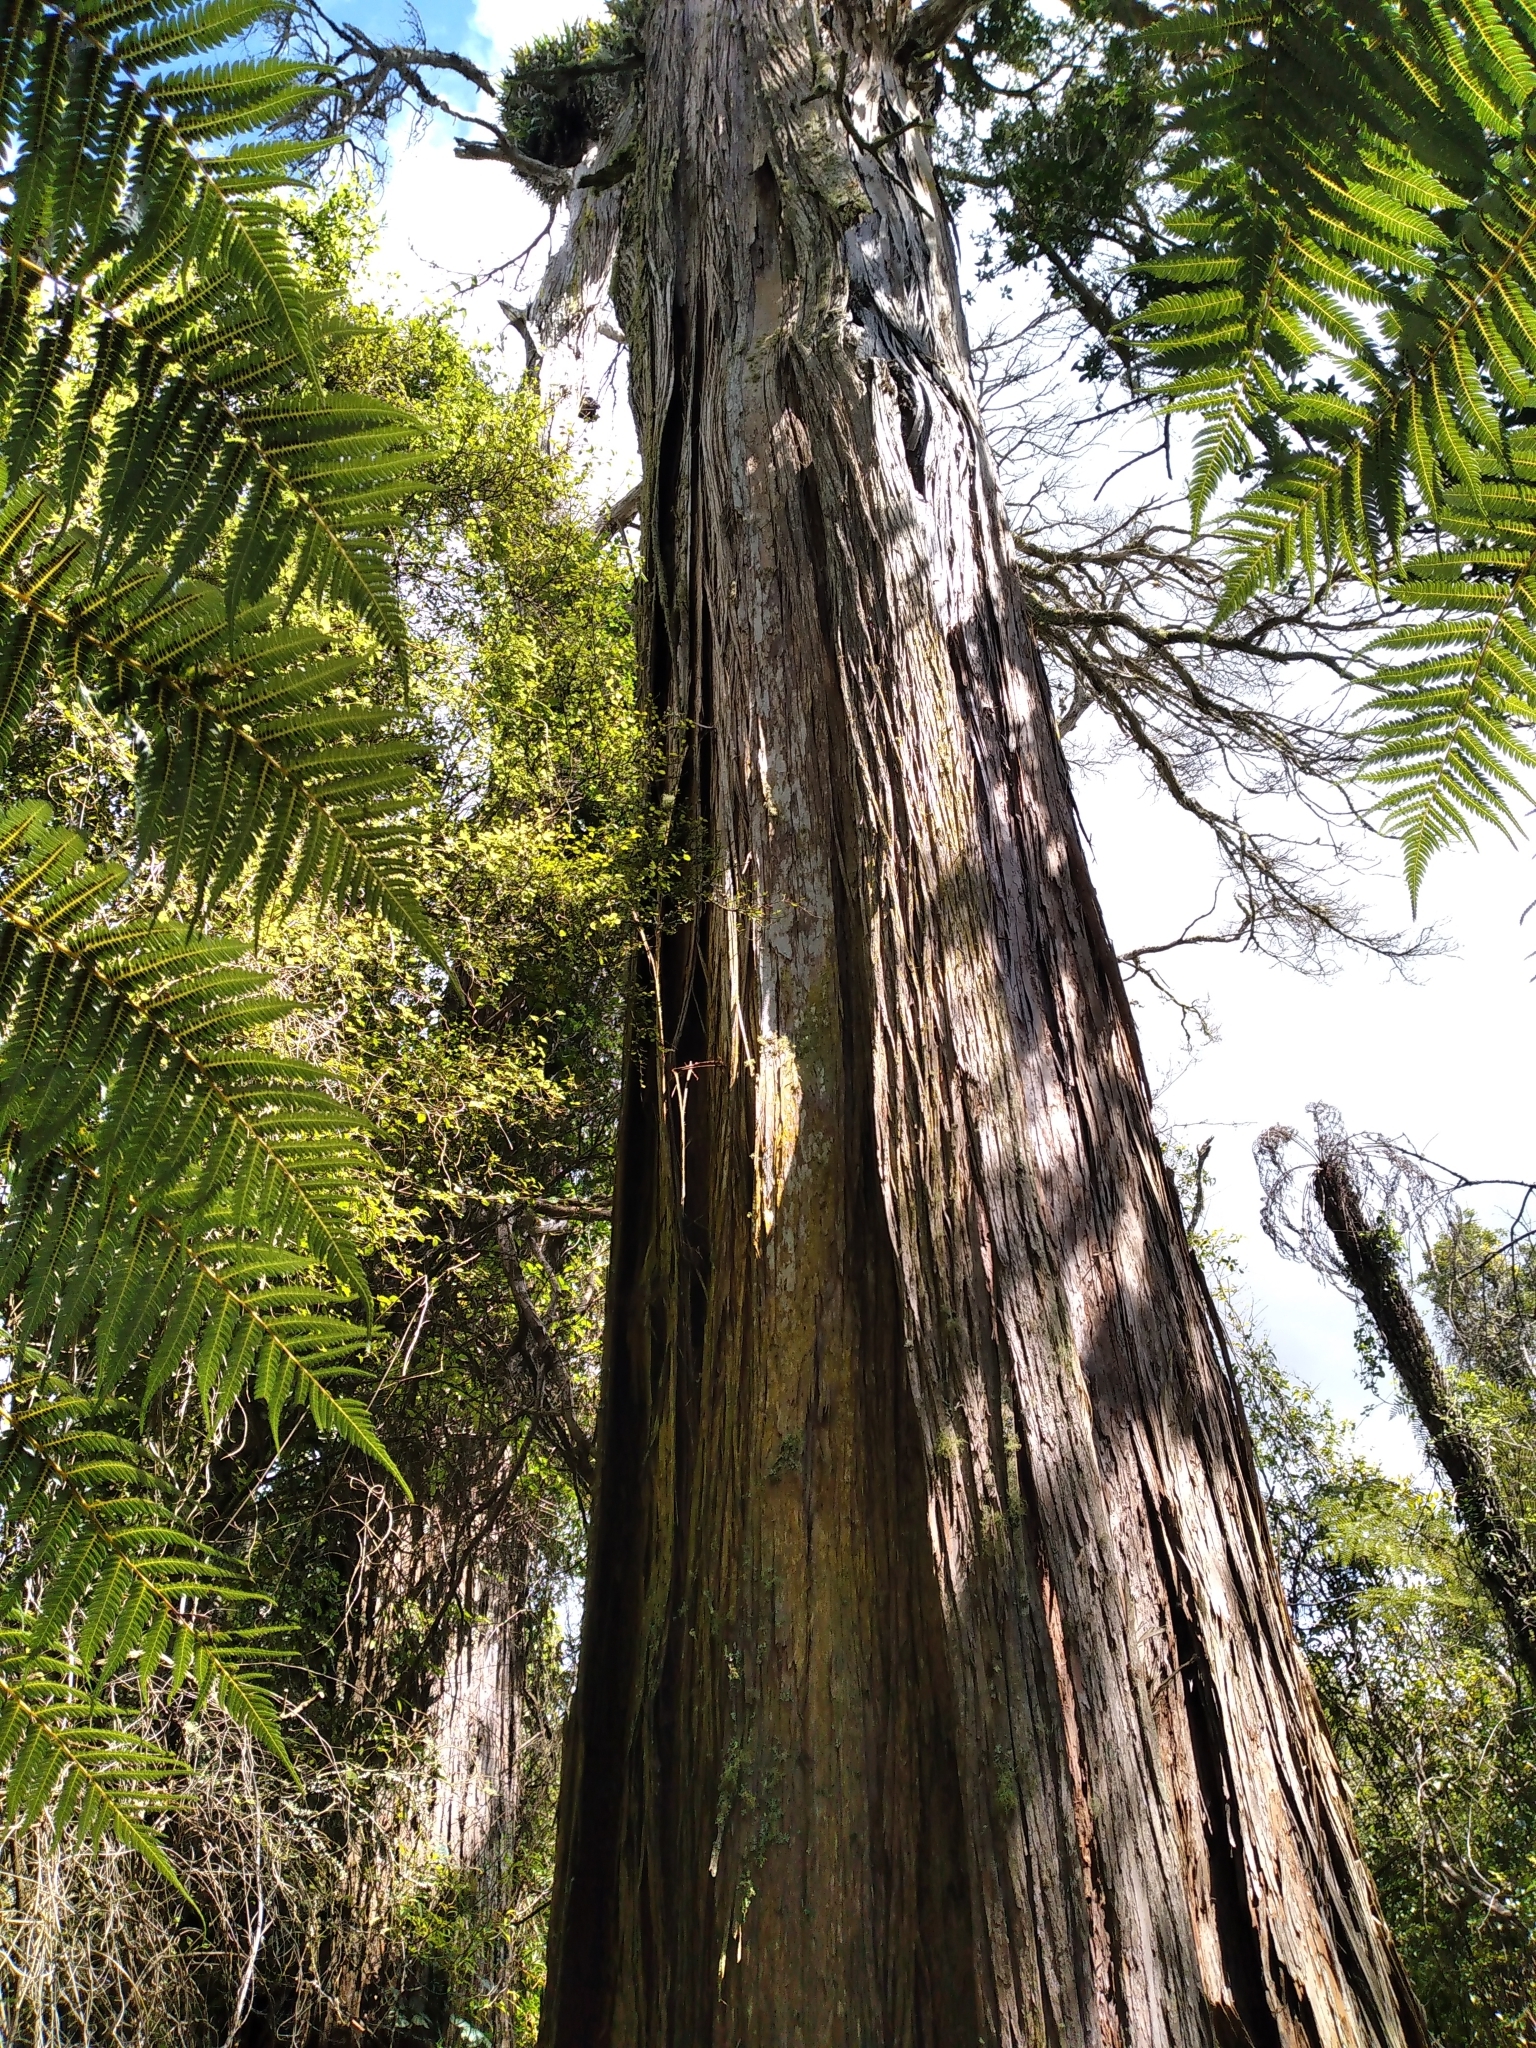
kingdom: Plantae
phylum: Tracheophyta
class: Pinopsida
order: Pinales
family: Podocarpaceae
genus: Podocarpus
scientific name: Podocarpus totara
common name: Totara
